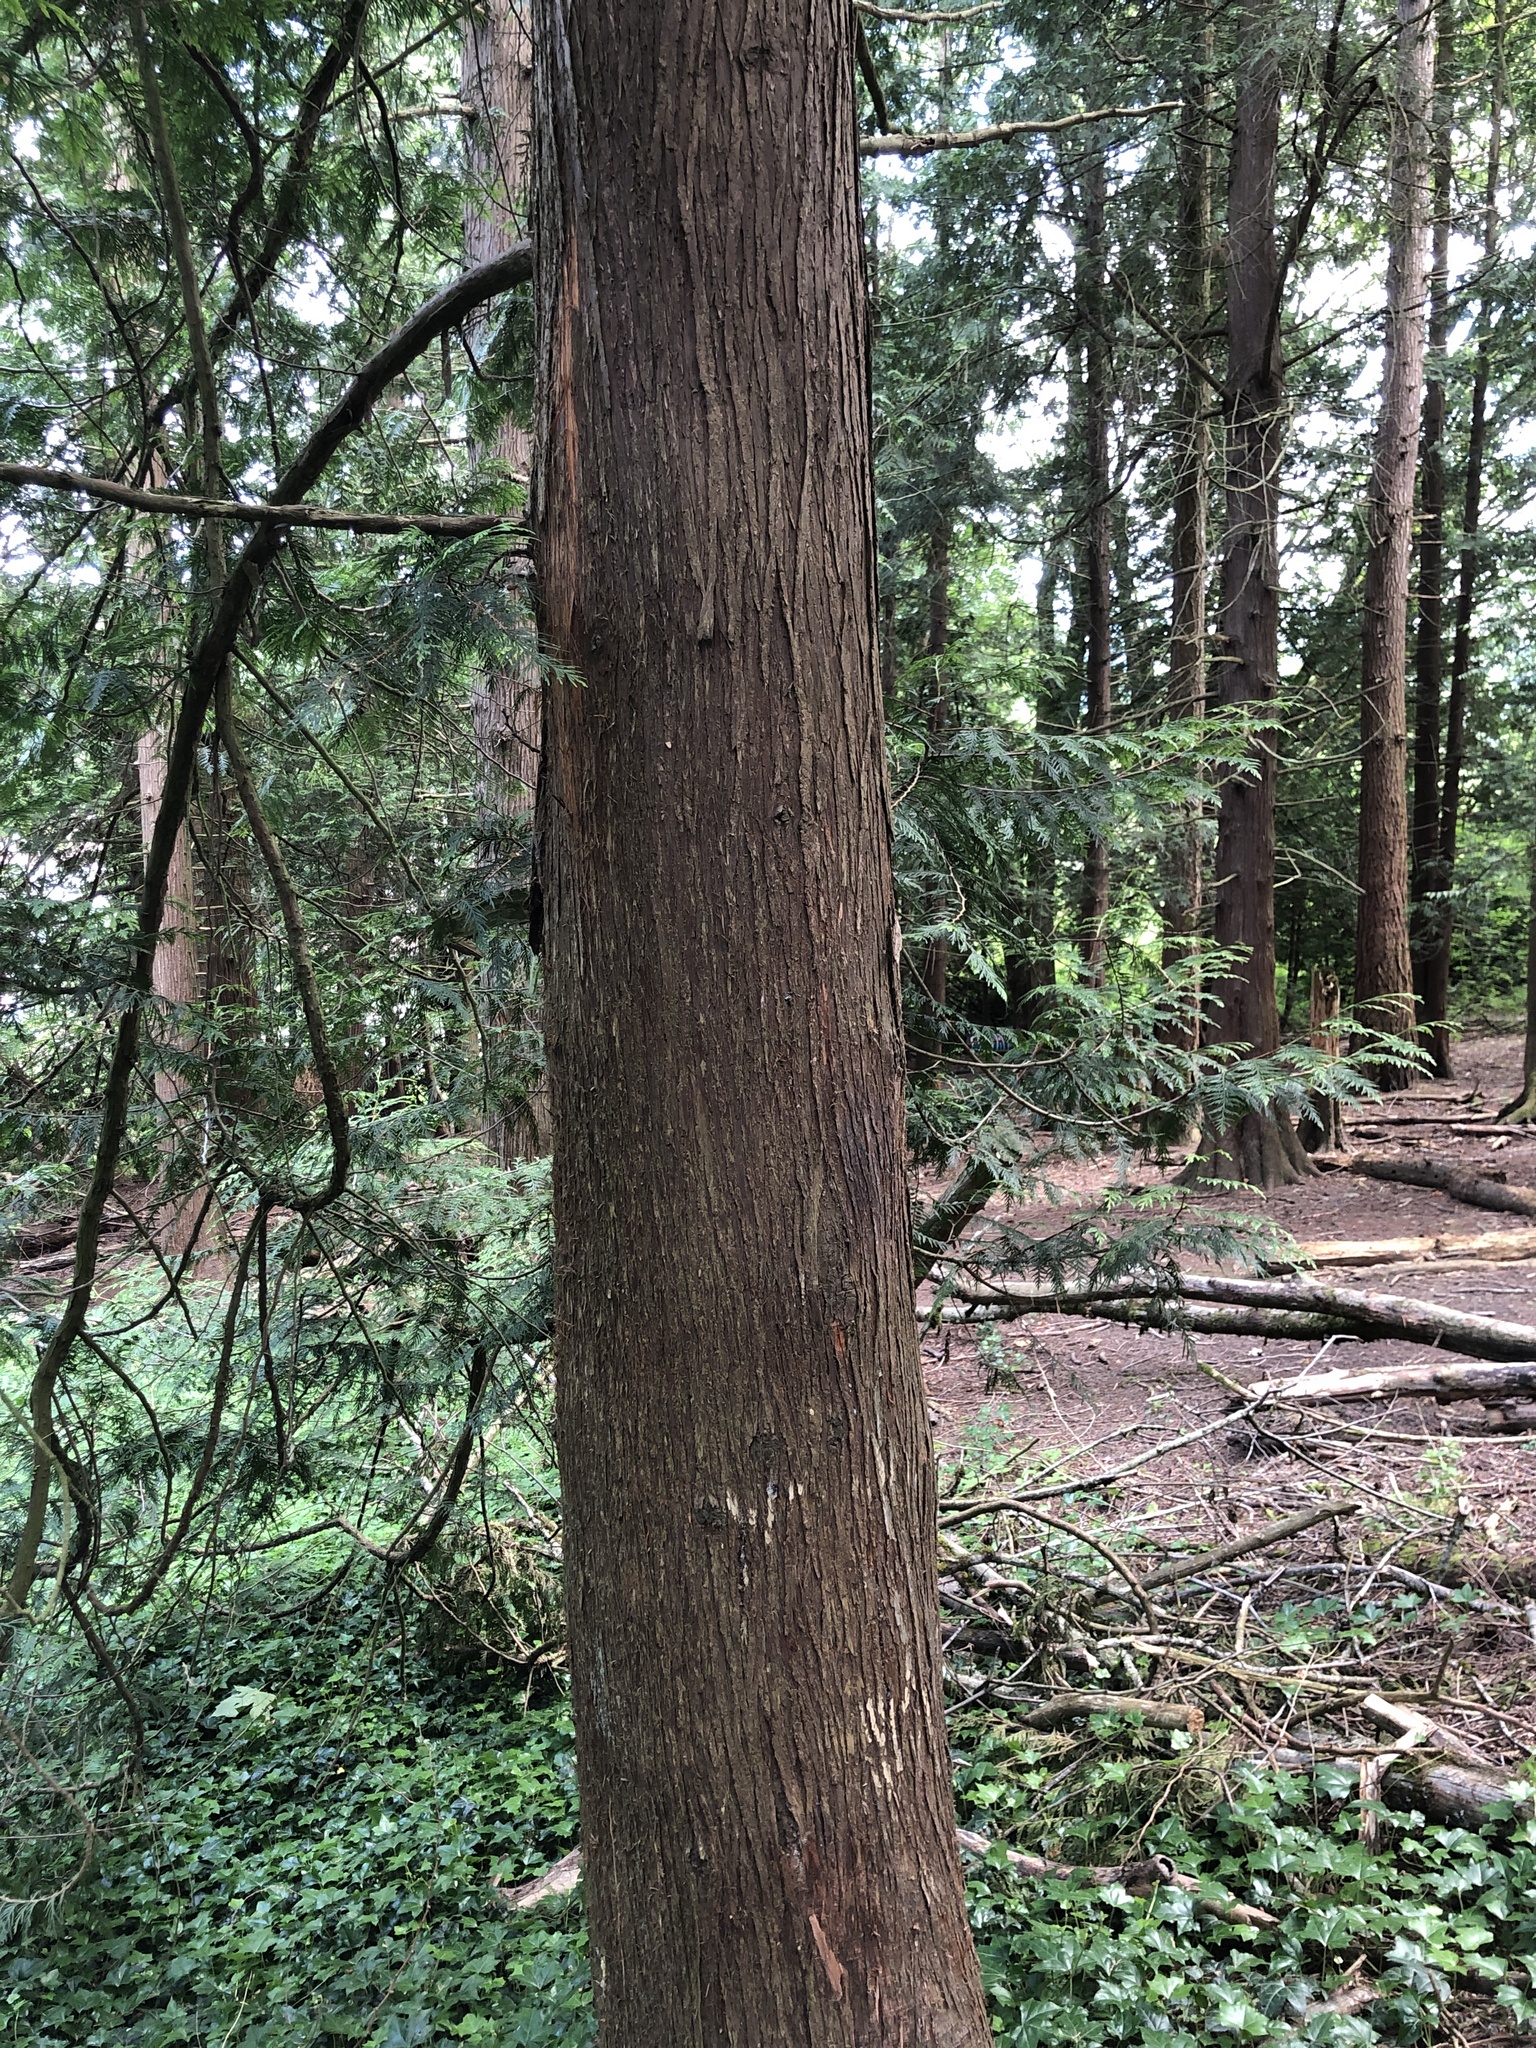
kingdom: Plantae
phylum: Tracheophyta
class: Pinopsida
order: Pinales
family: Cupressaceae
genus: Thuja
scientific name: Thuja plicata
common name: Western red-cedar
